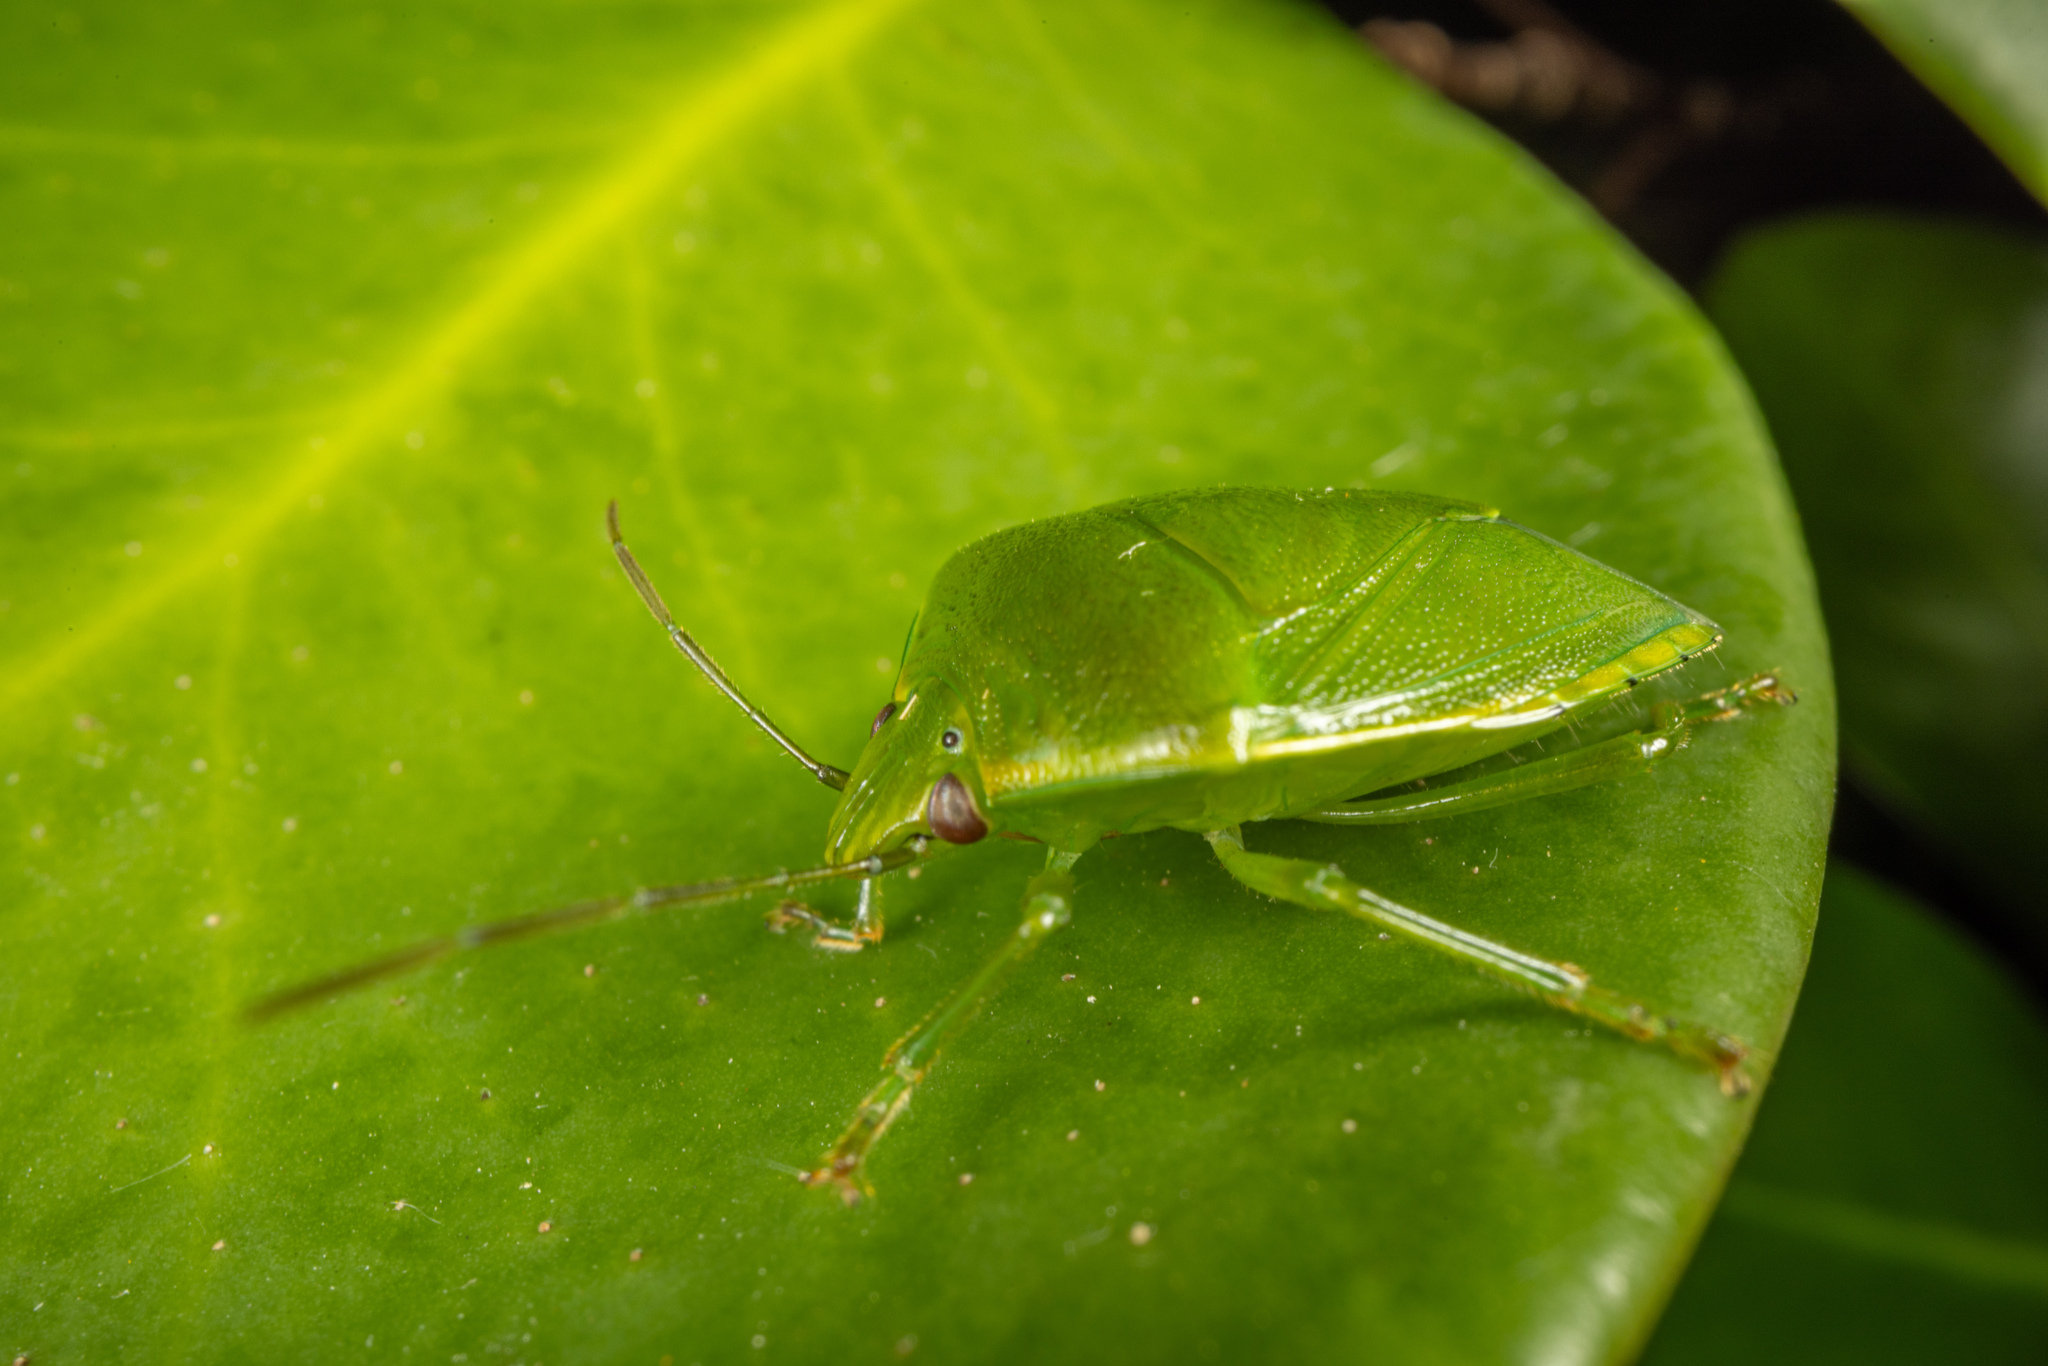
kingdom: Animalia
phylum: Arthropoda
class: Insecta
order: Hemiptera
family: Pentatomidae
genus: Glaucias
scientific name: Glaucias amyota
